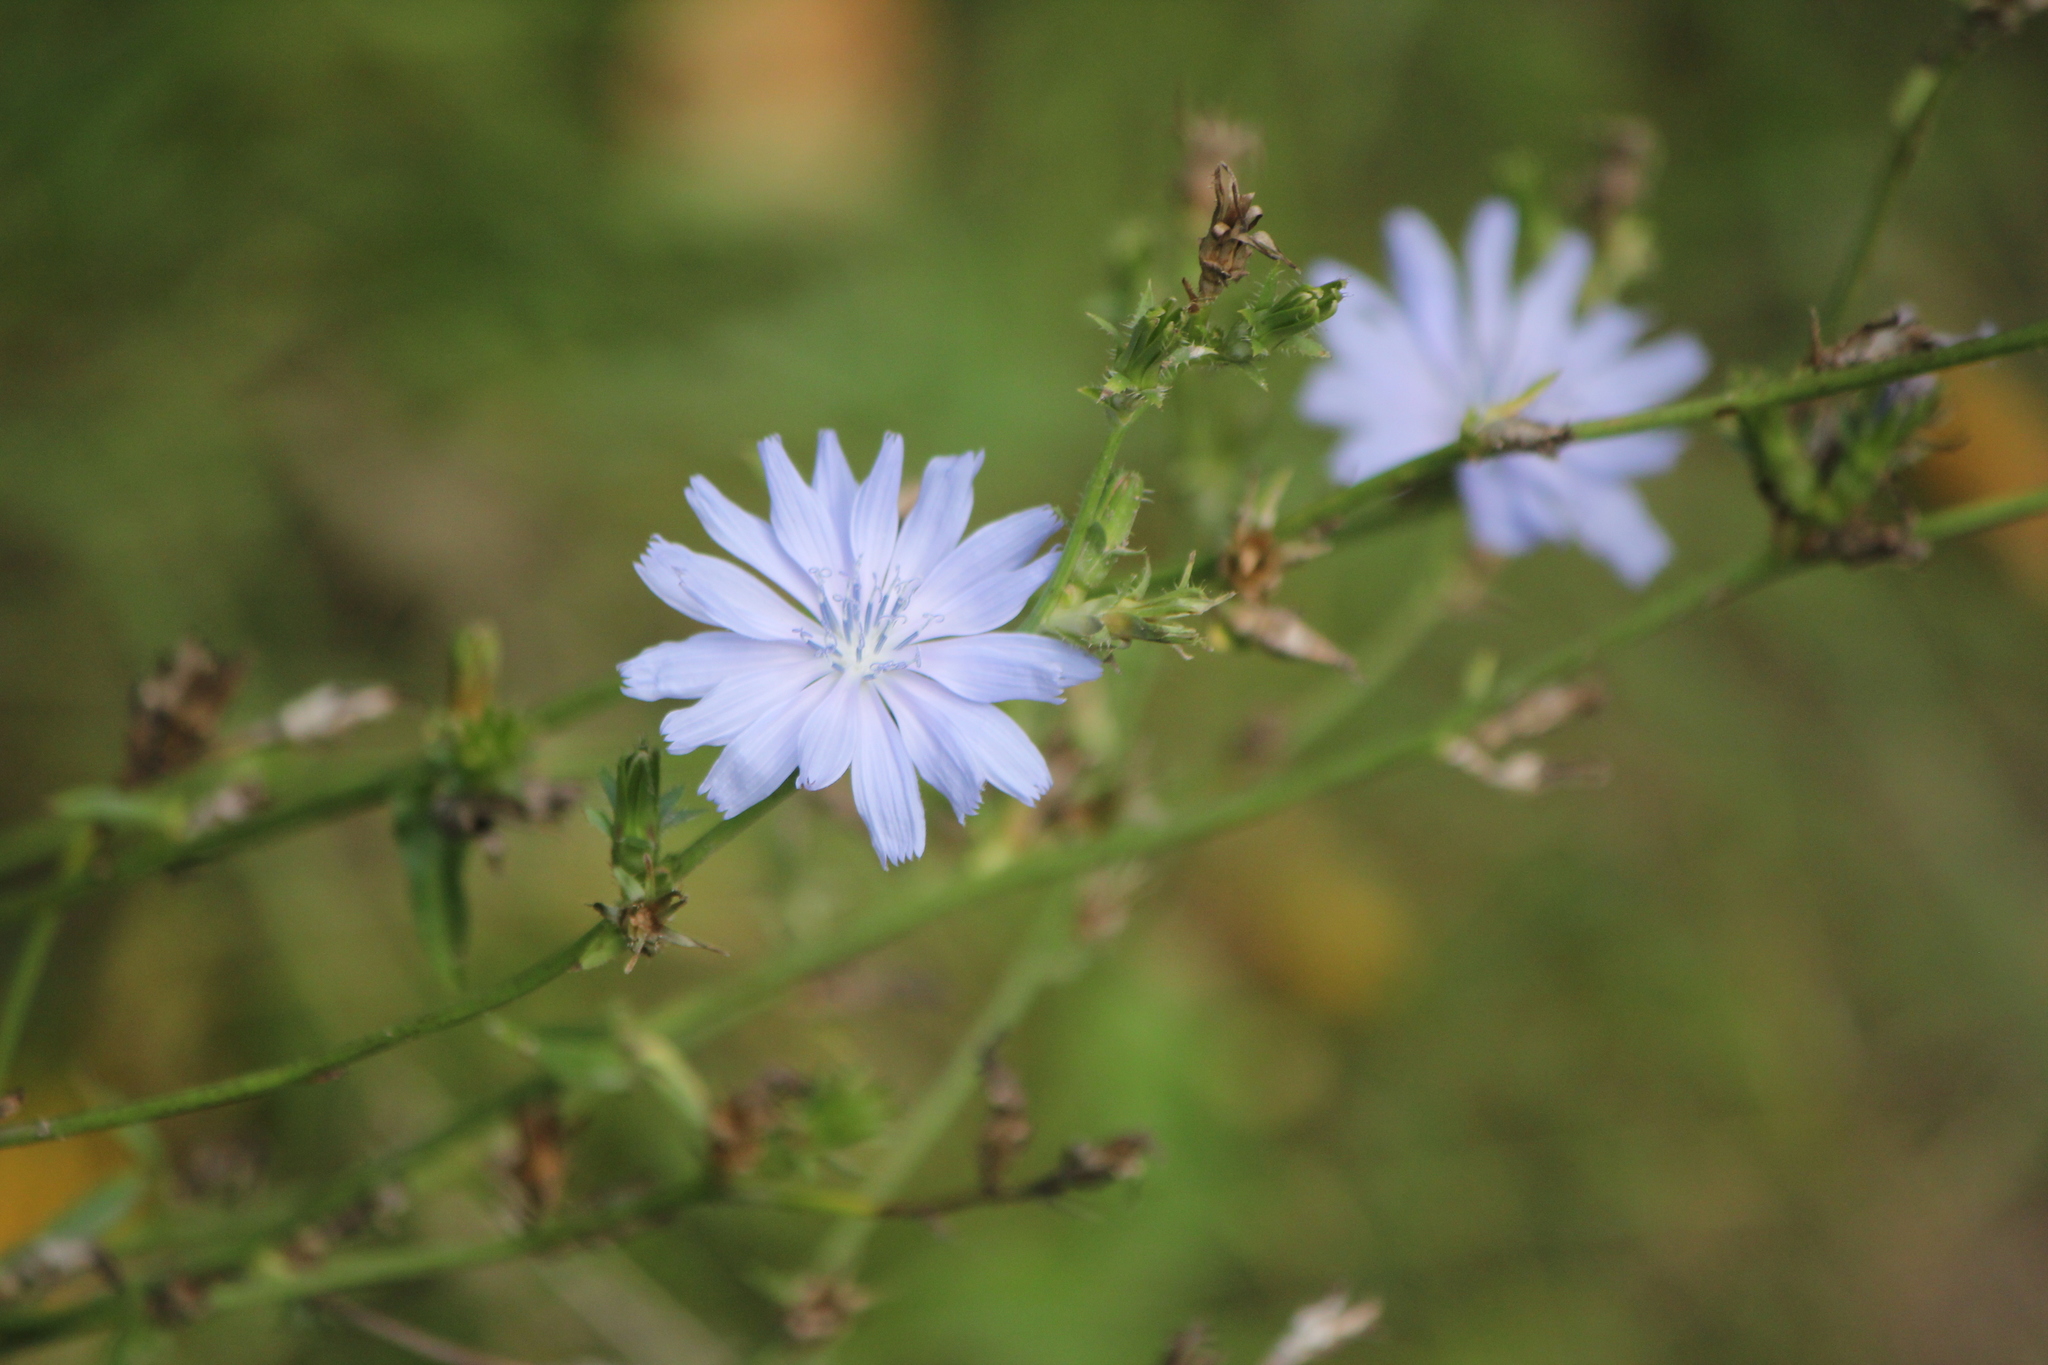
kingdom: Plantae
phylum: Tracheophyta
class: Magnoliopsida
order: Asterales
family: Asteraceae
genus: Cichorium
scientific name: Cichorium intybus
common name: Chicory
